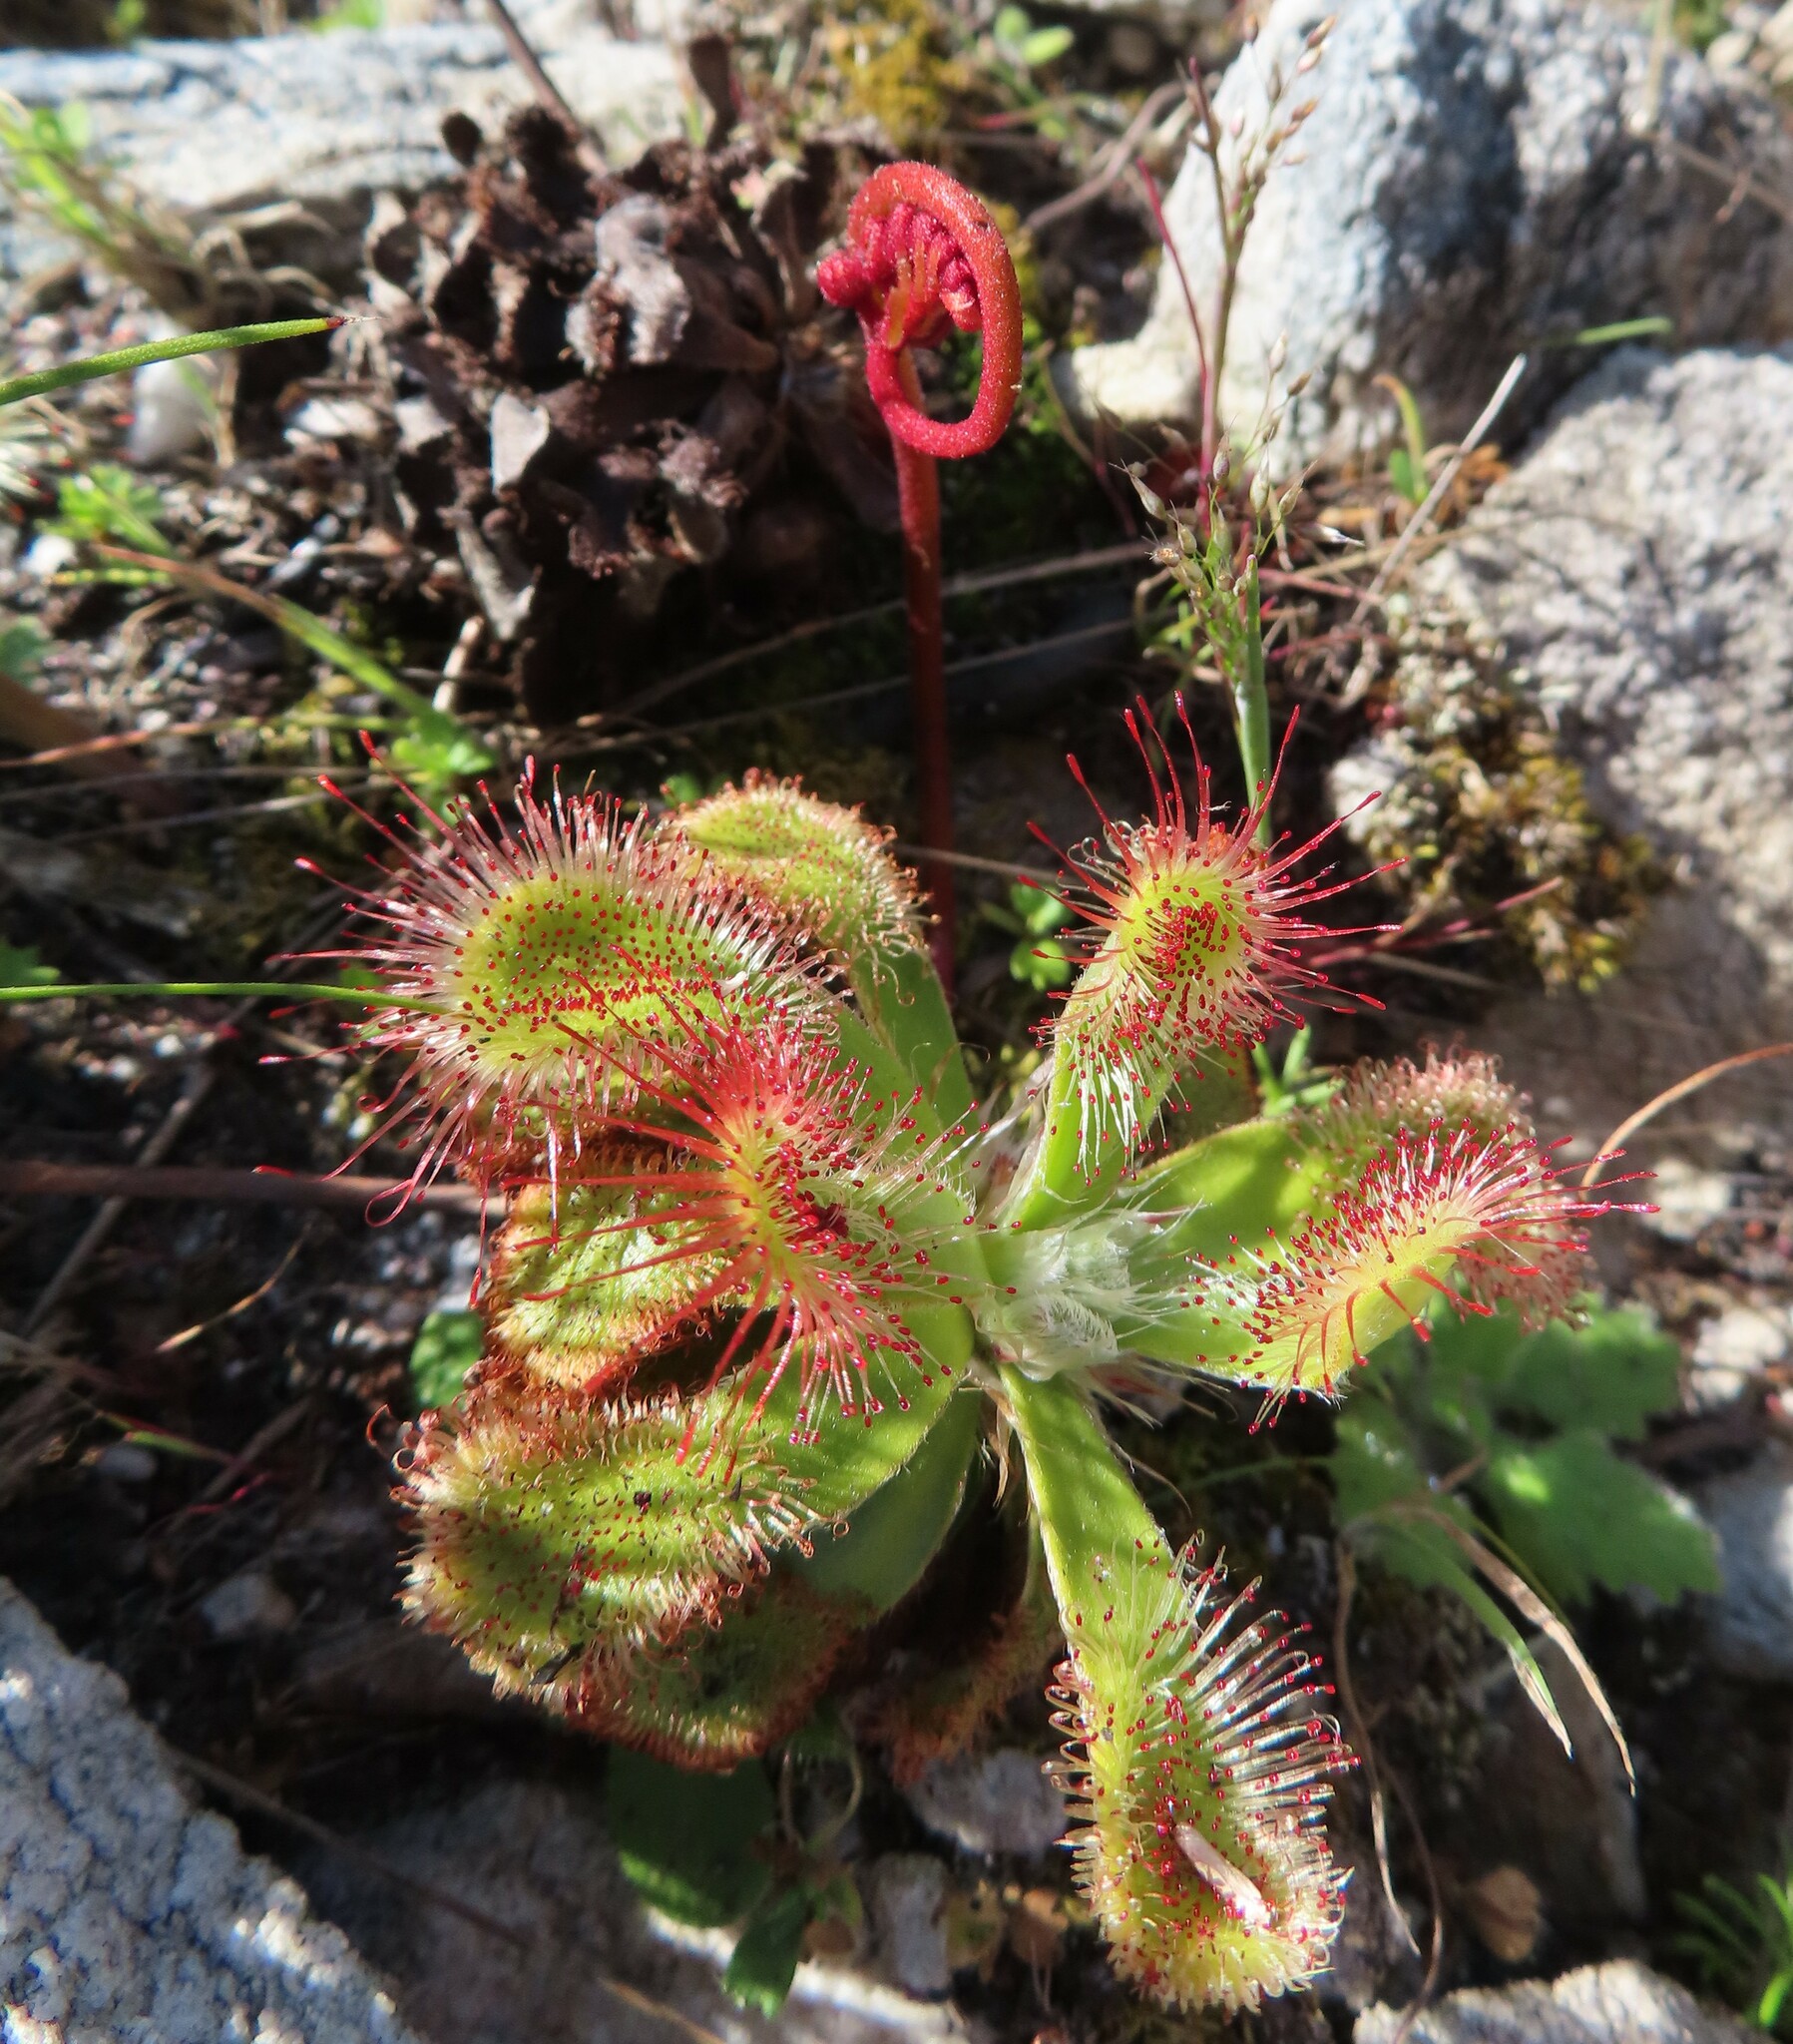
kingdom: Plantae
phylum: Tracheophyta
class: Magnoliopsida
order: Caryophyllales
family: Droseraceae
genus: Drosera
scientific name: Drosera aliciae
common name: Alice sundew
